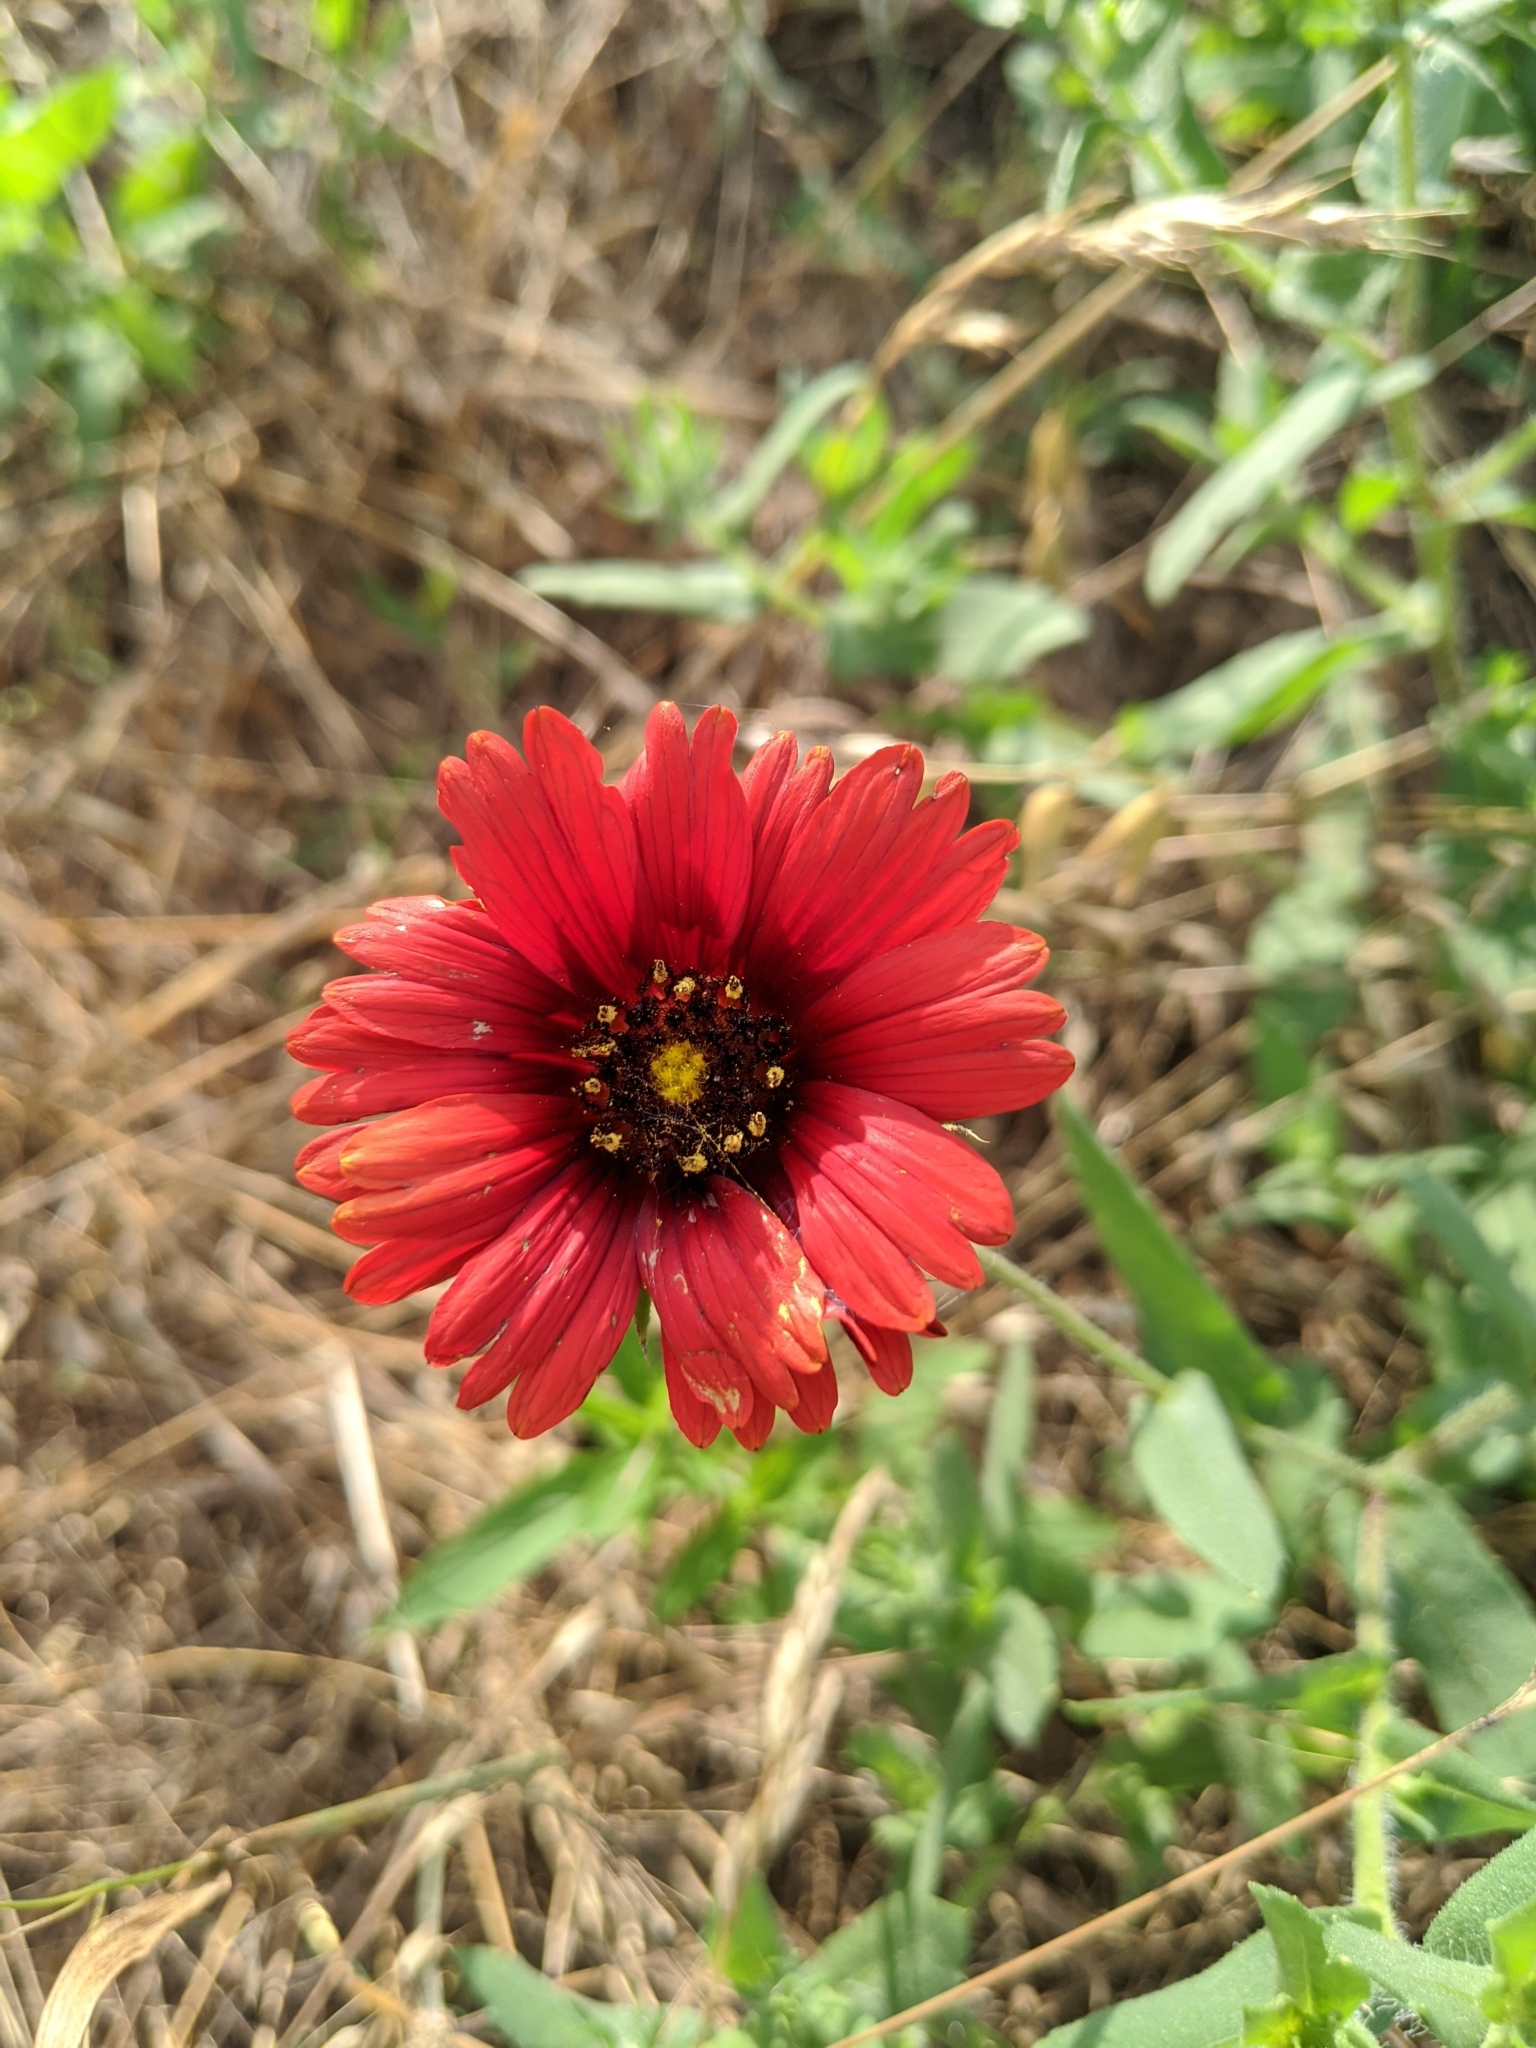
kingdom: Plantae
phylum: Tracheophyta
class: Magnoliopsida
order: Asterales
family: Asteraceae
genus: Gaillardia
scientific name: Gaillardia amblyodon
